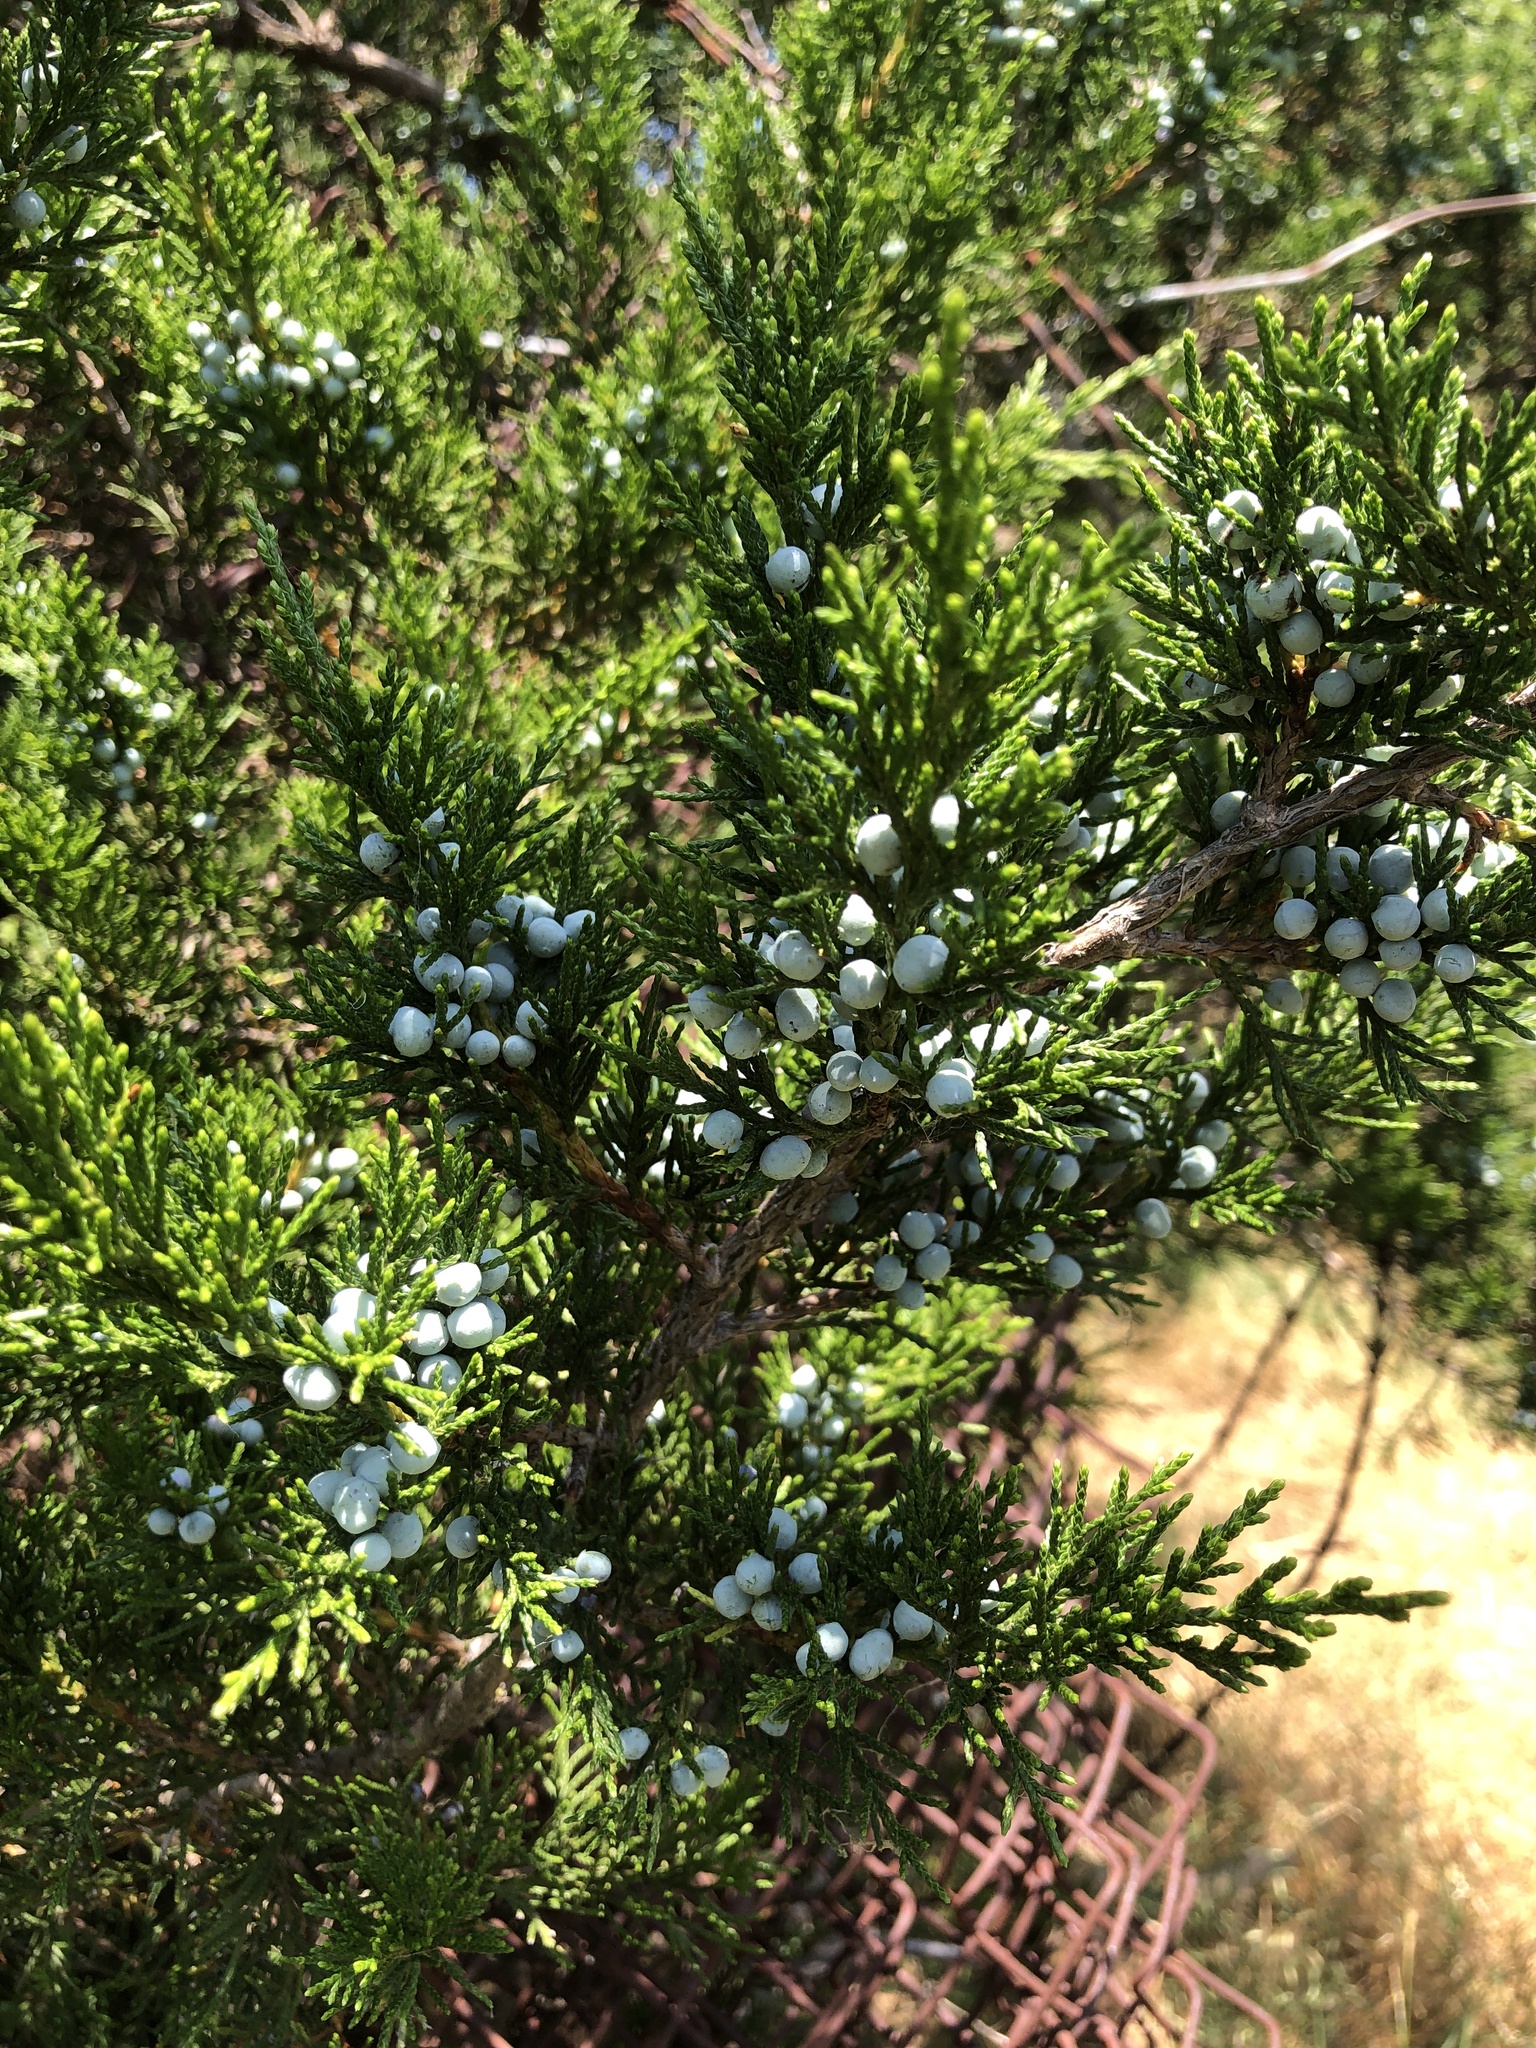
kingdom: Plantae
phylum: Tracheophyta
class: Pinopsida
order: Pinales
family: Cupressaceae
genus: Juniperus
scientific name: Juniperus virginiana
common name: Red juniper
